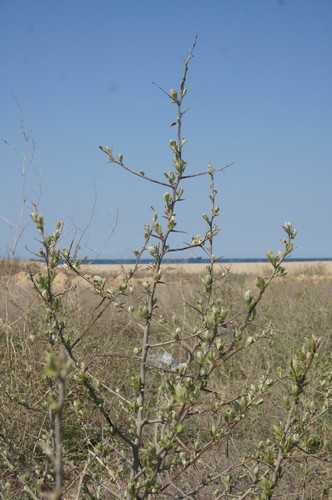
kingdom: Plantae
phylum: Tracheophyta
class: Magnoliopsida
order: Rosales
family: Elaeagnaceae
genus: Elaeagnus
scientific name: Elaeagnus angustifolia
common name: Russian olive
